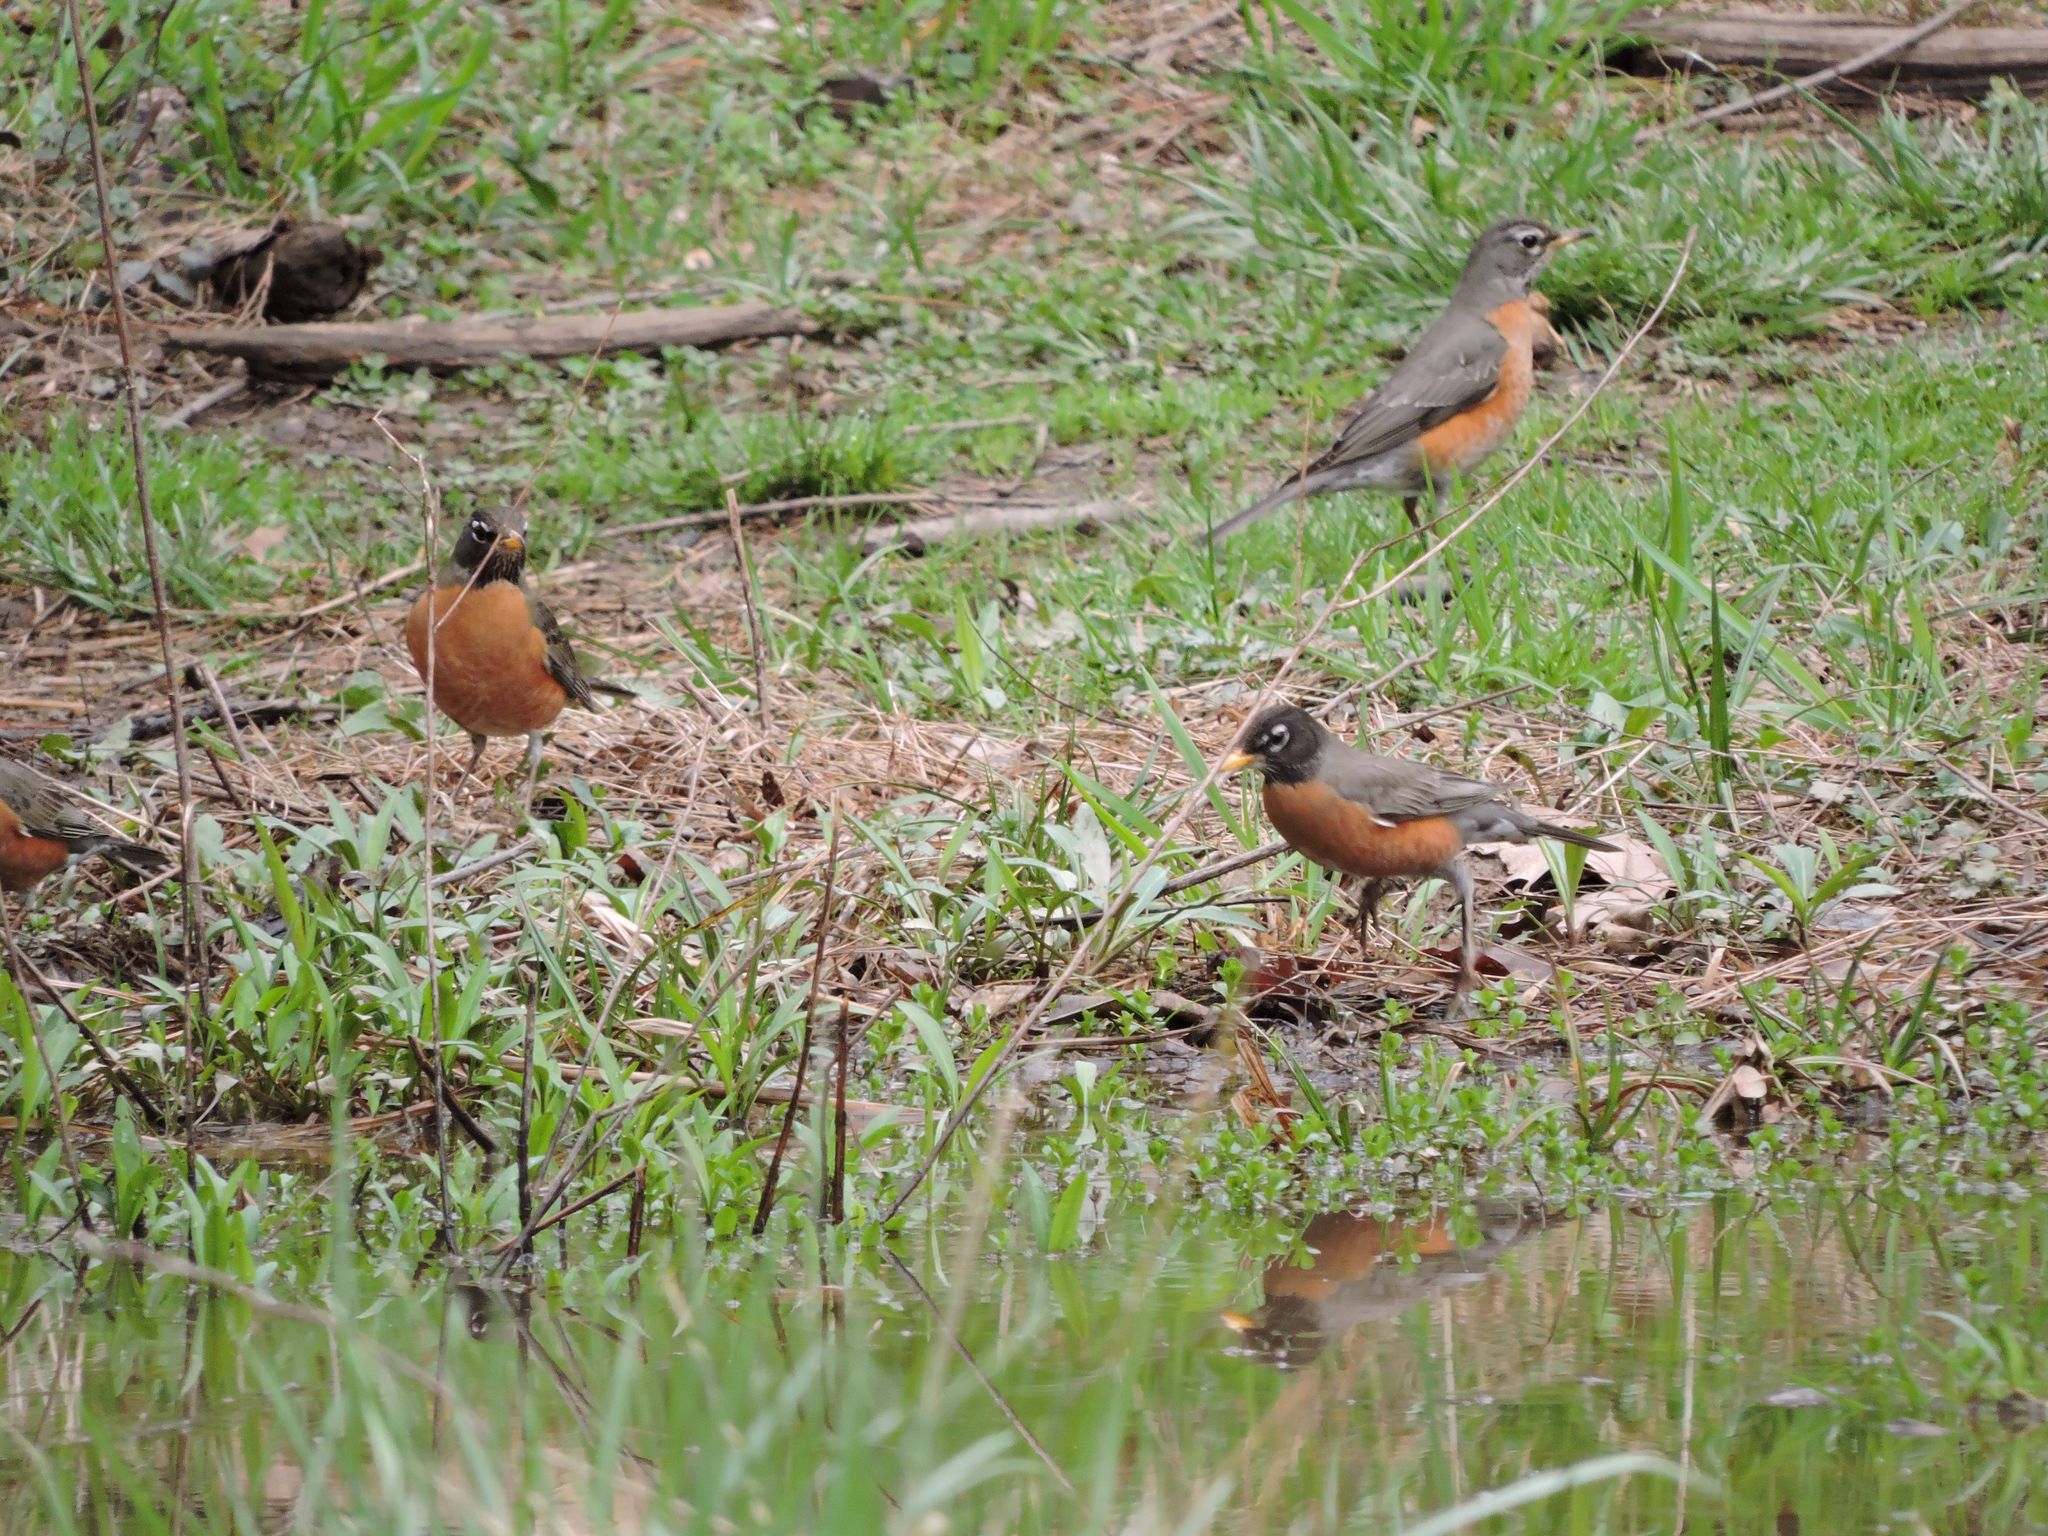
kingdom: Animalia
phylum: Chordata
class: Aves
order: Passeriformes
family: Turdidae
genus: Turdus
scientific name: Turdus migratorius
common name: American robin
